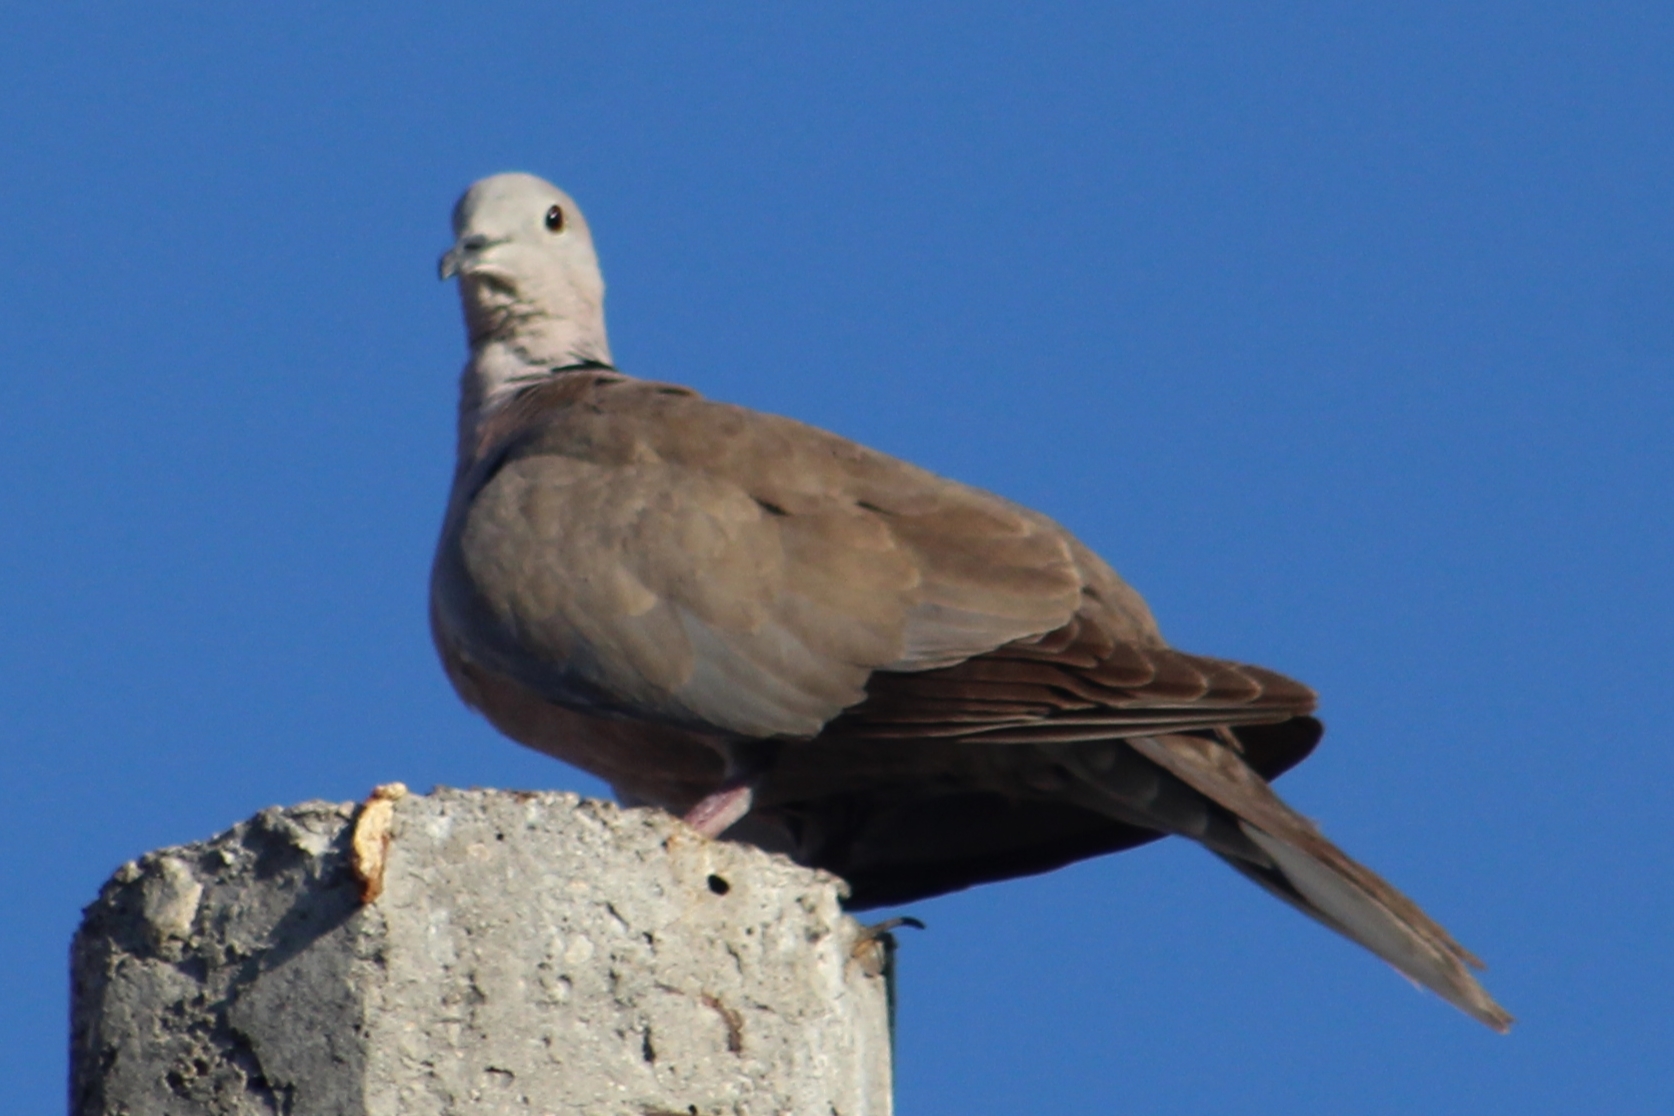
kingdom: Animalia
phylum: Chordata
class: Aves
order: Columbiformes
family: Columbidae
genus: Streptopelia
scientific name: Streptopelia decaocto
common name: Eurasian collared dove
